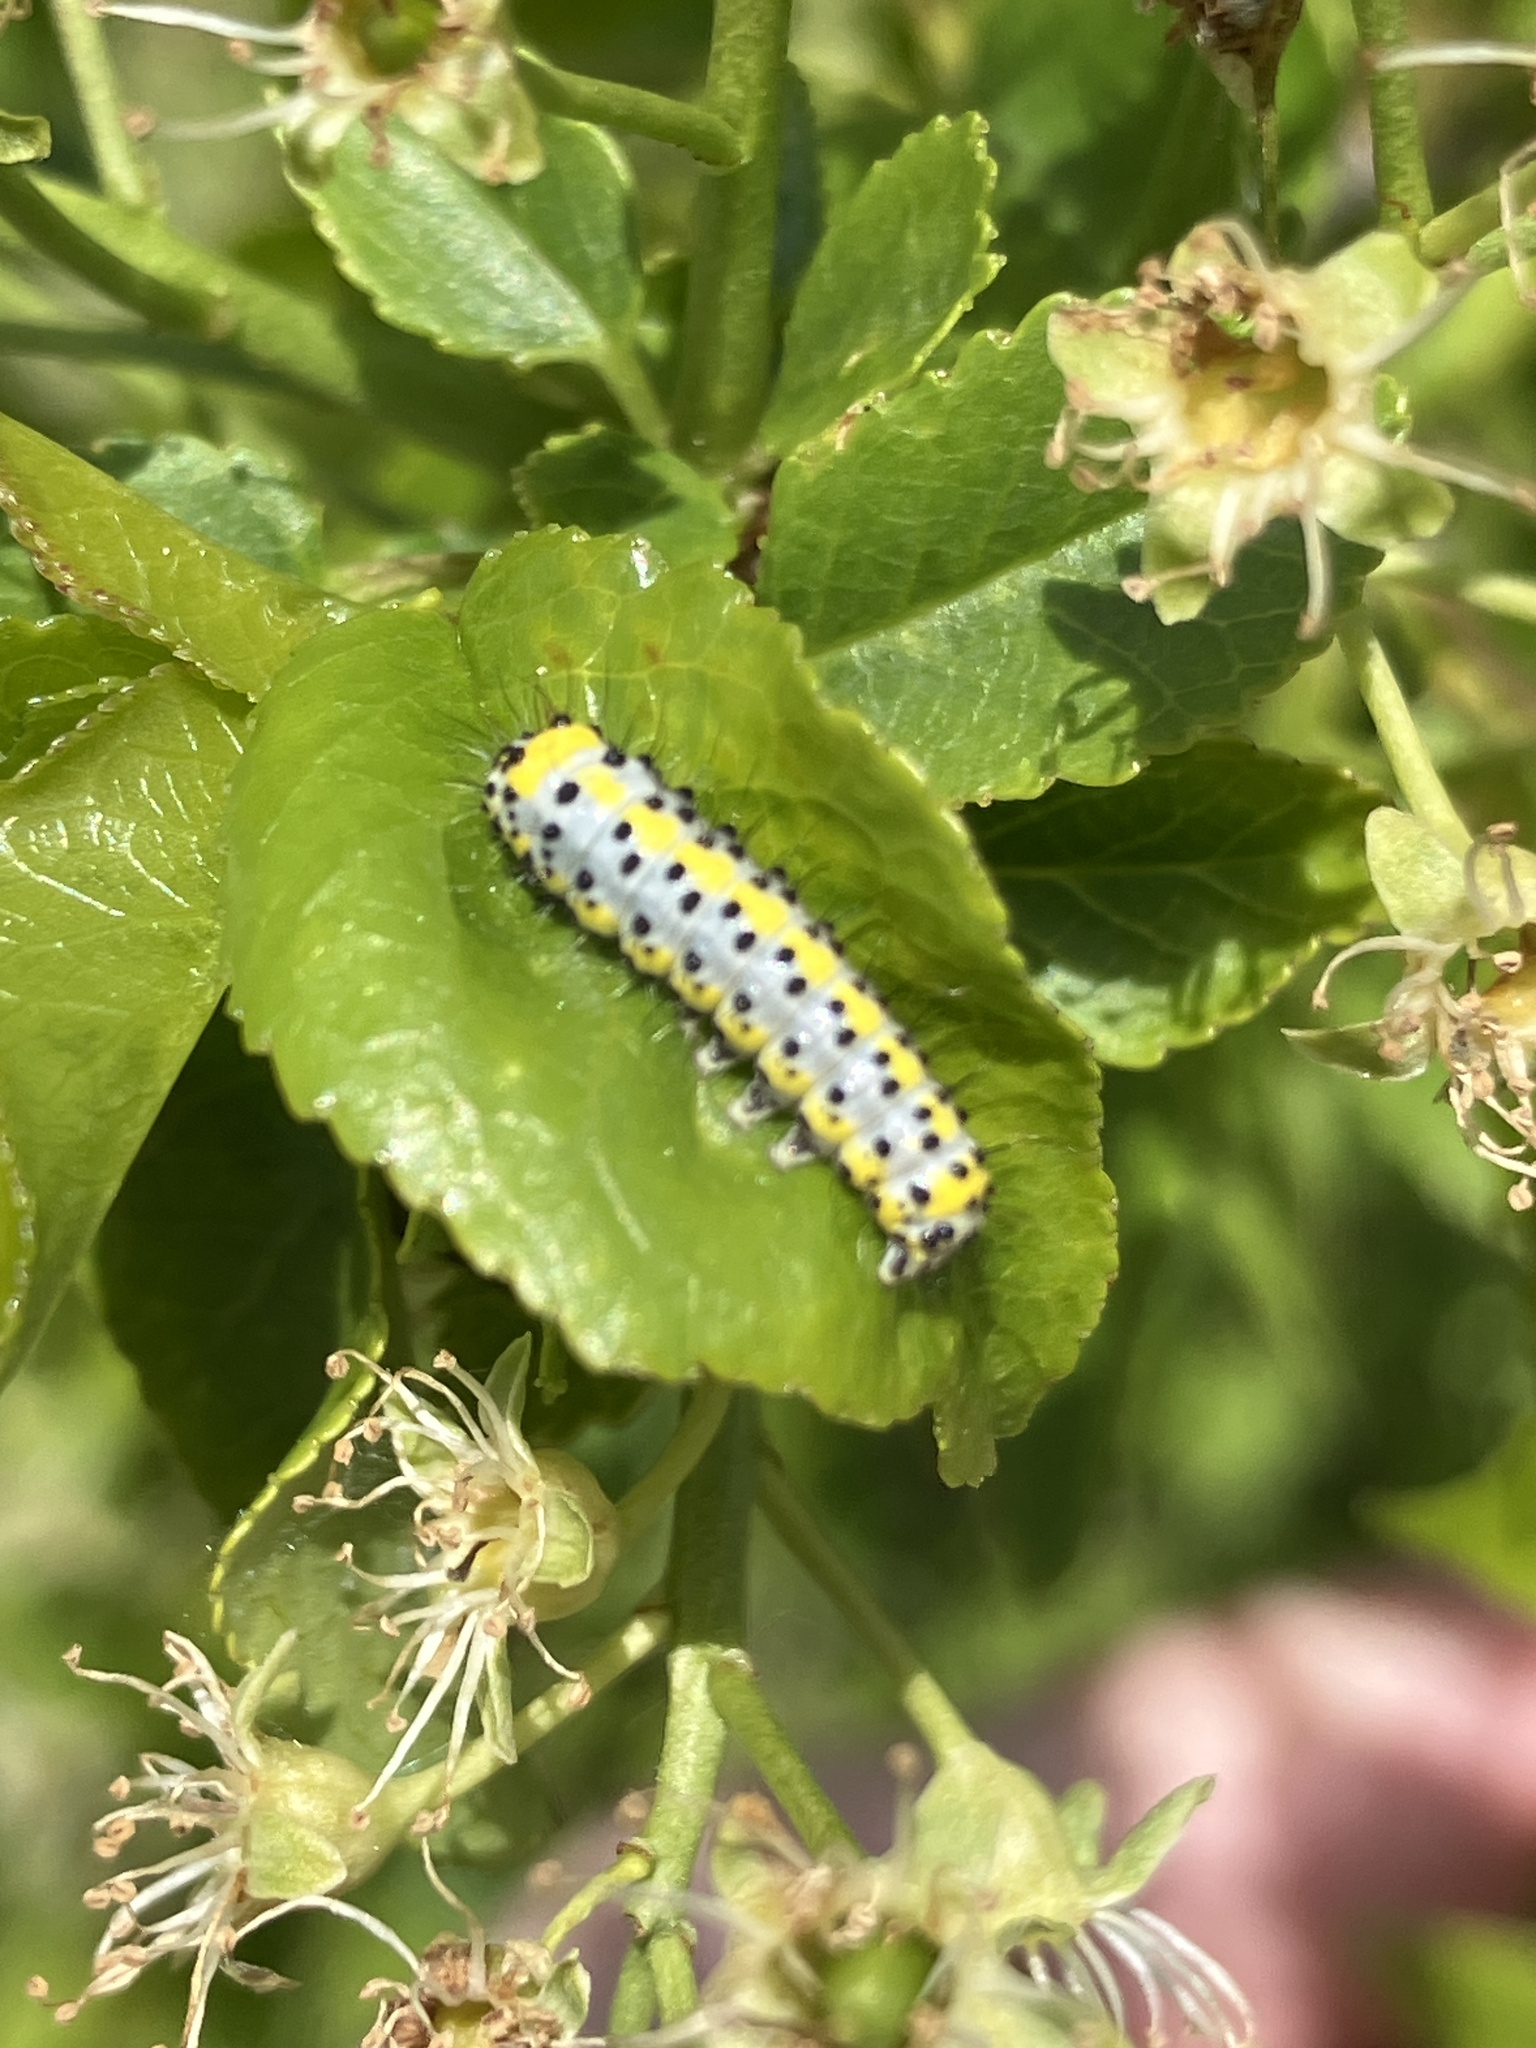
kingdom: Animalia
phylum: Arthropoda
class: Insecta
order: Lepidoptera
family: Noctuidae
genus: Diloba
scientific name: Diloba caeruleocephala
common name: Figure of eight
